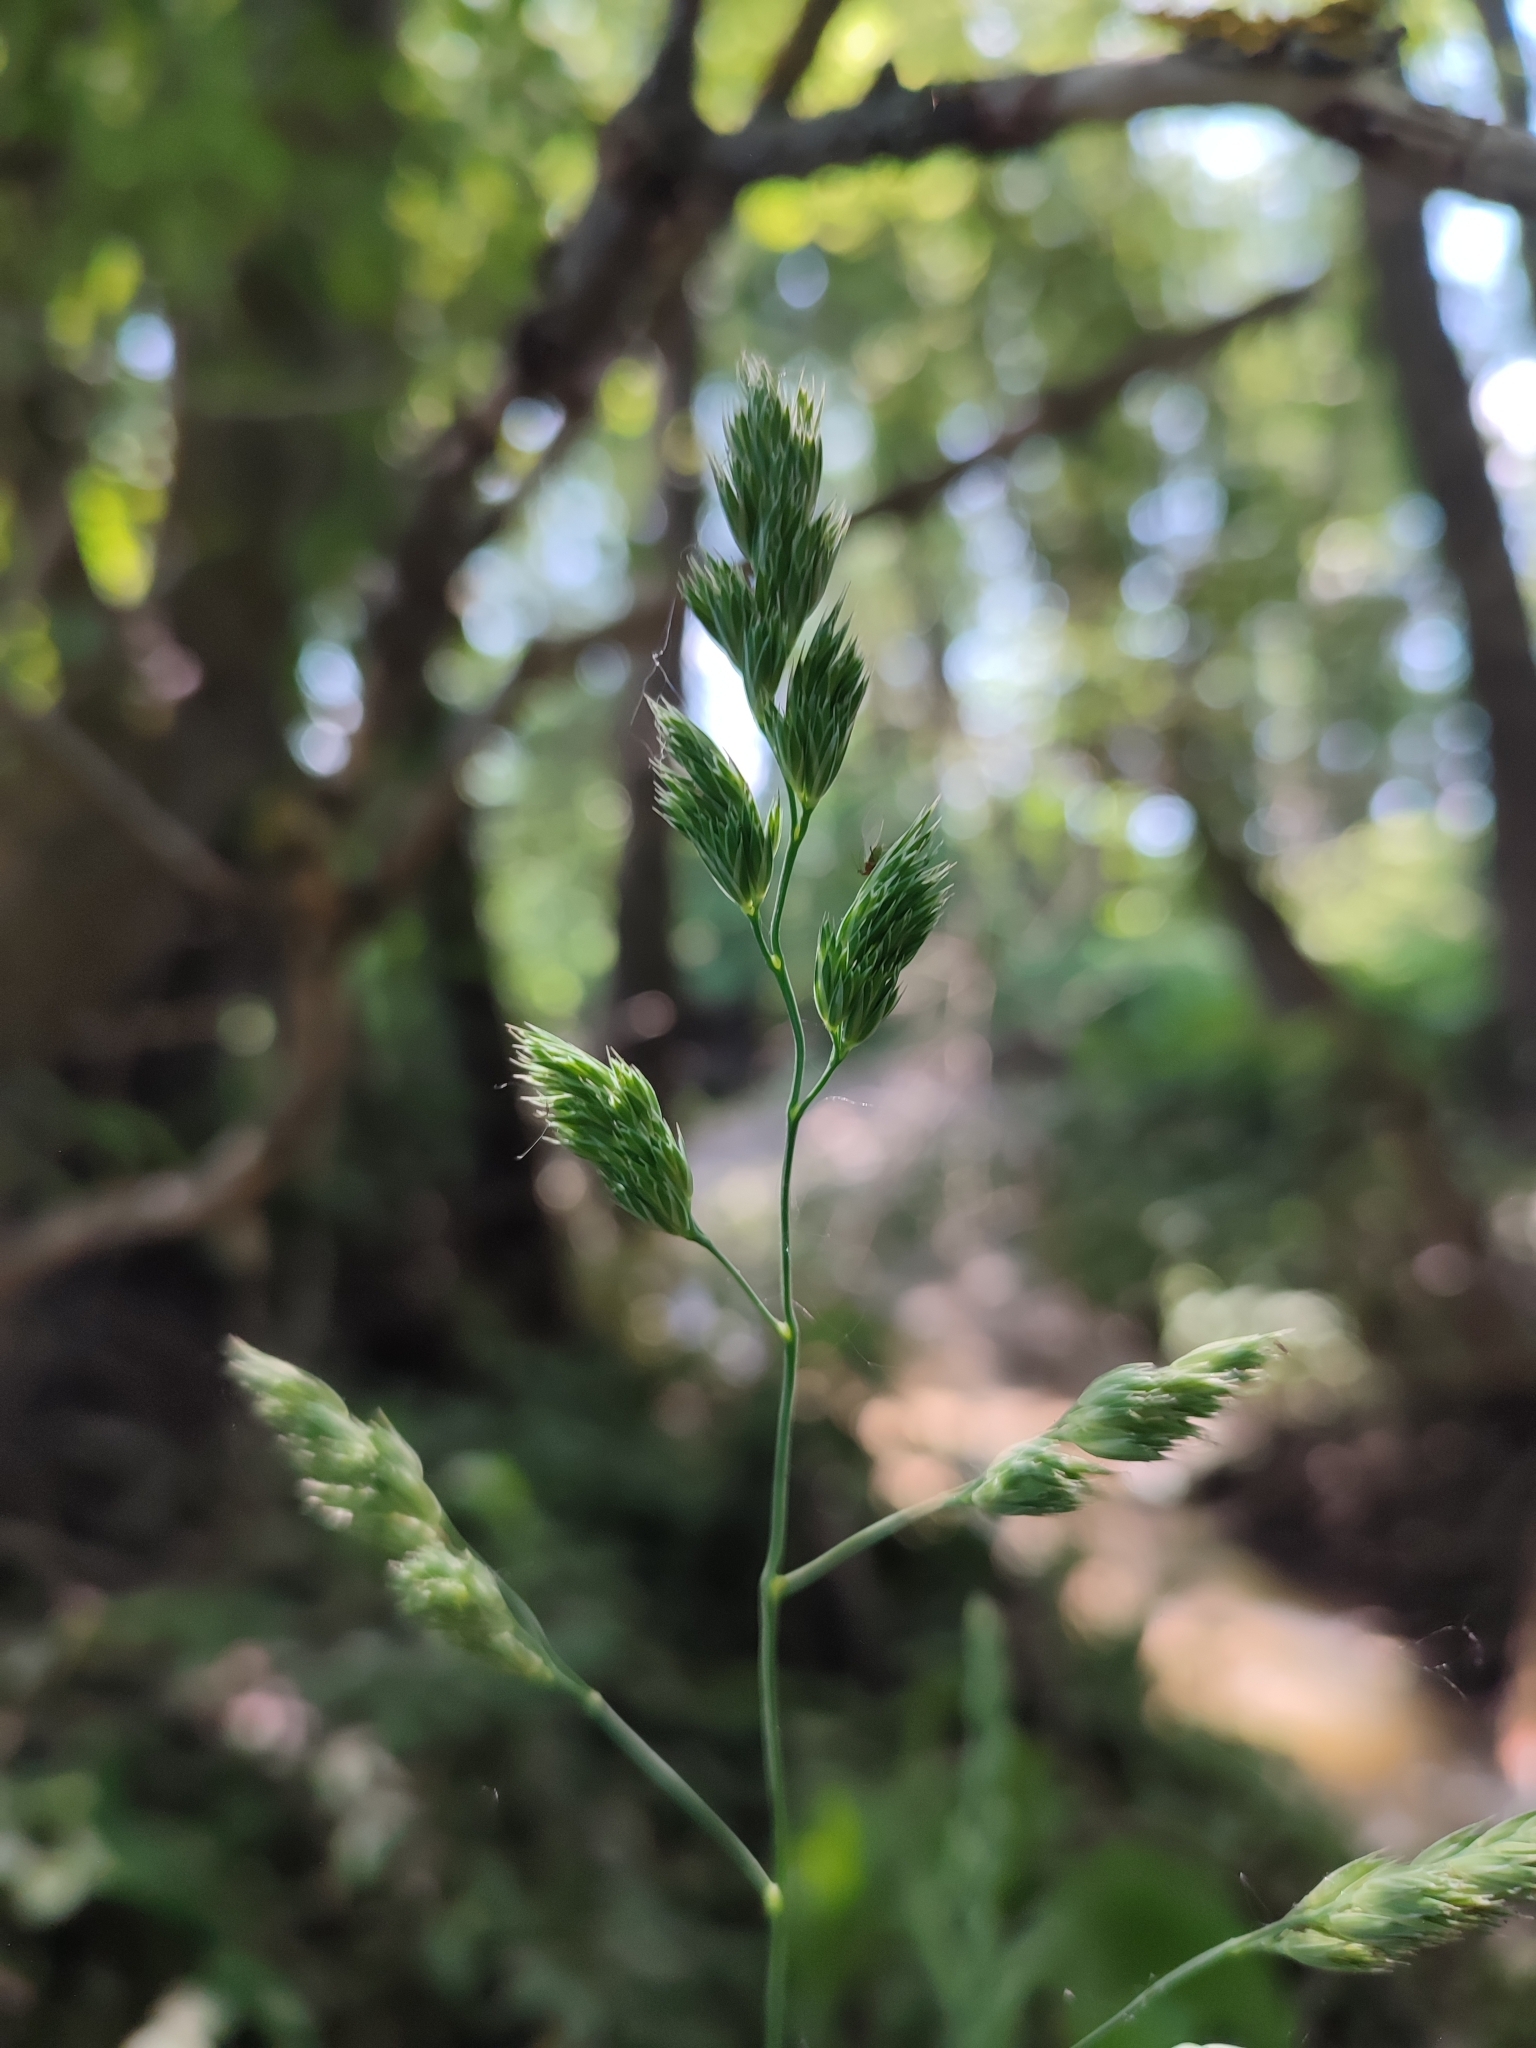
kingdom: Plantae
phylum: Tracheophyta
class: Liliopsida
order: Poales
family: Poaceae
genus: Dactylis
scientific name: Dactylis glomerata
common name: Orchardgrass
